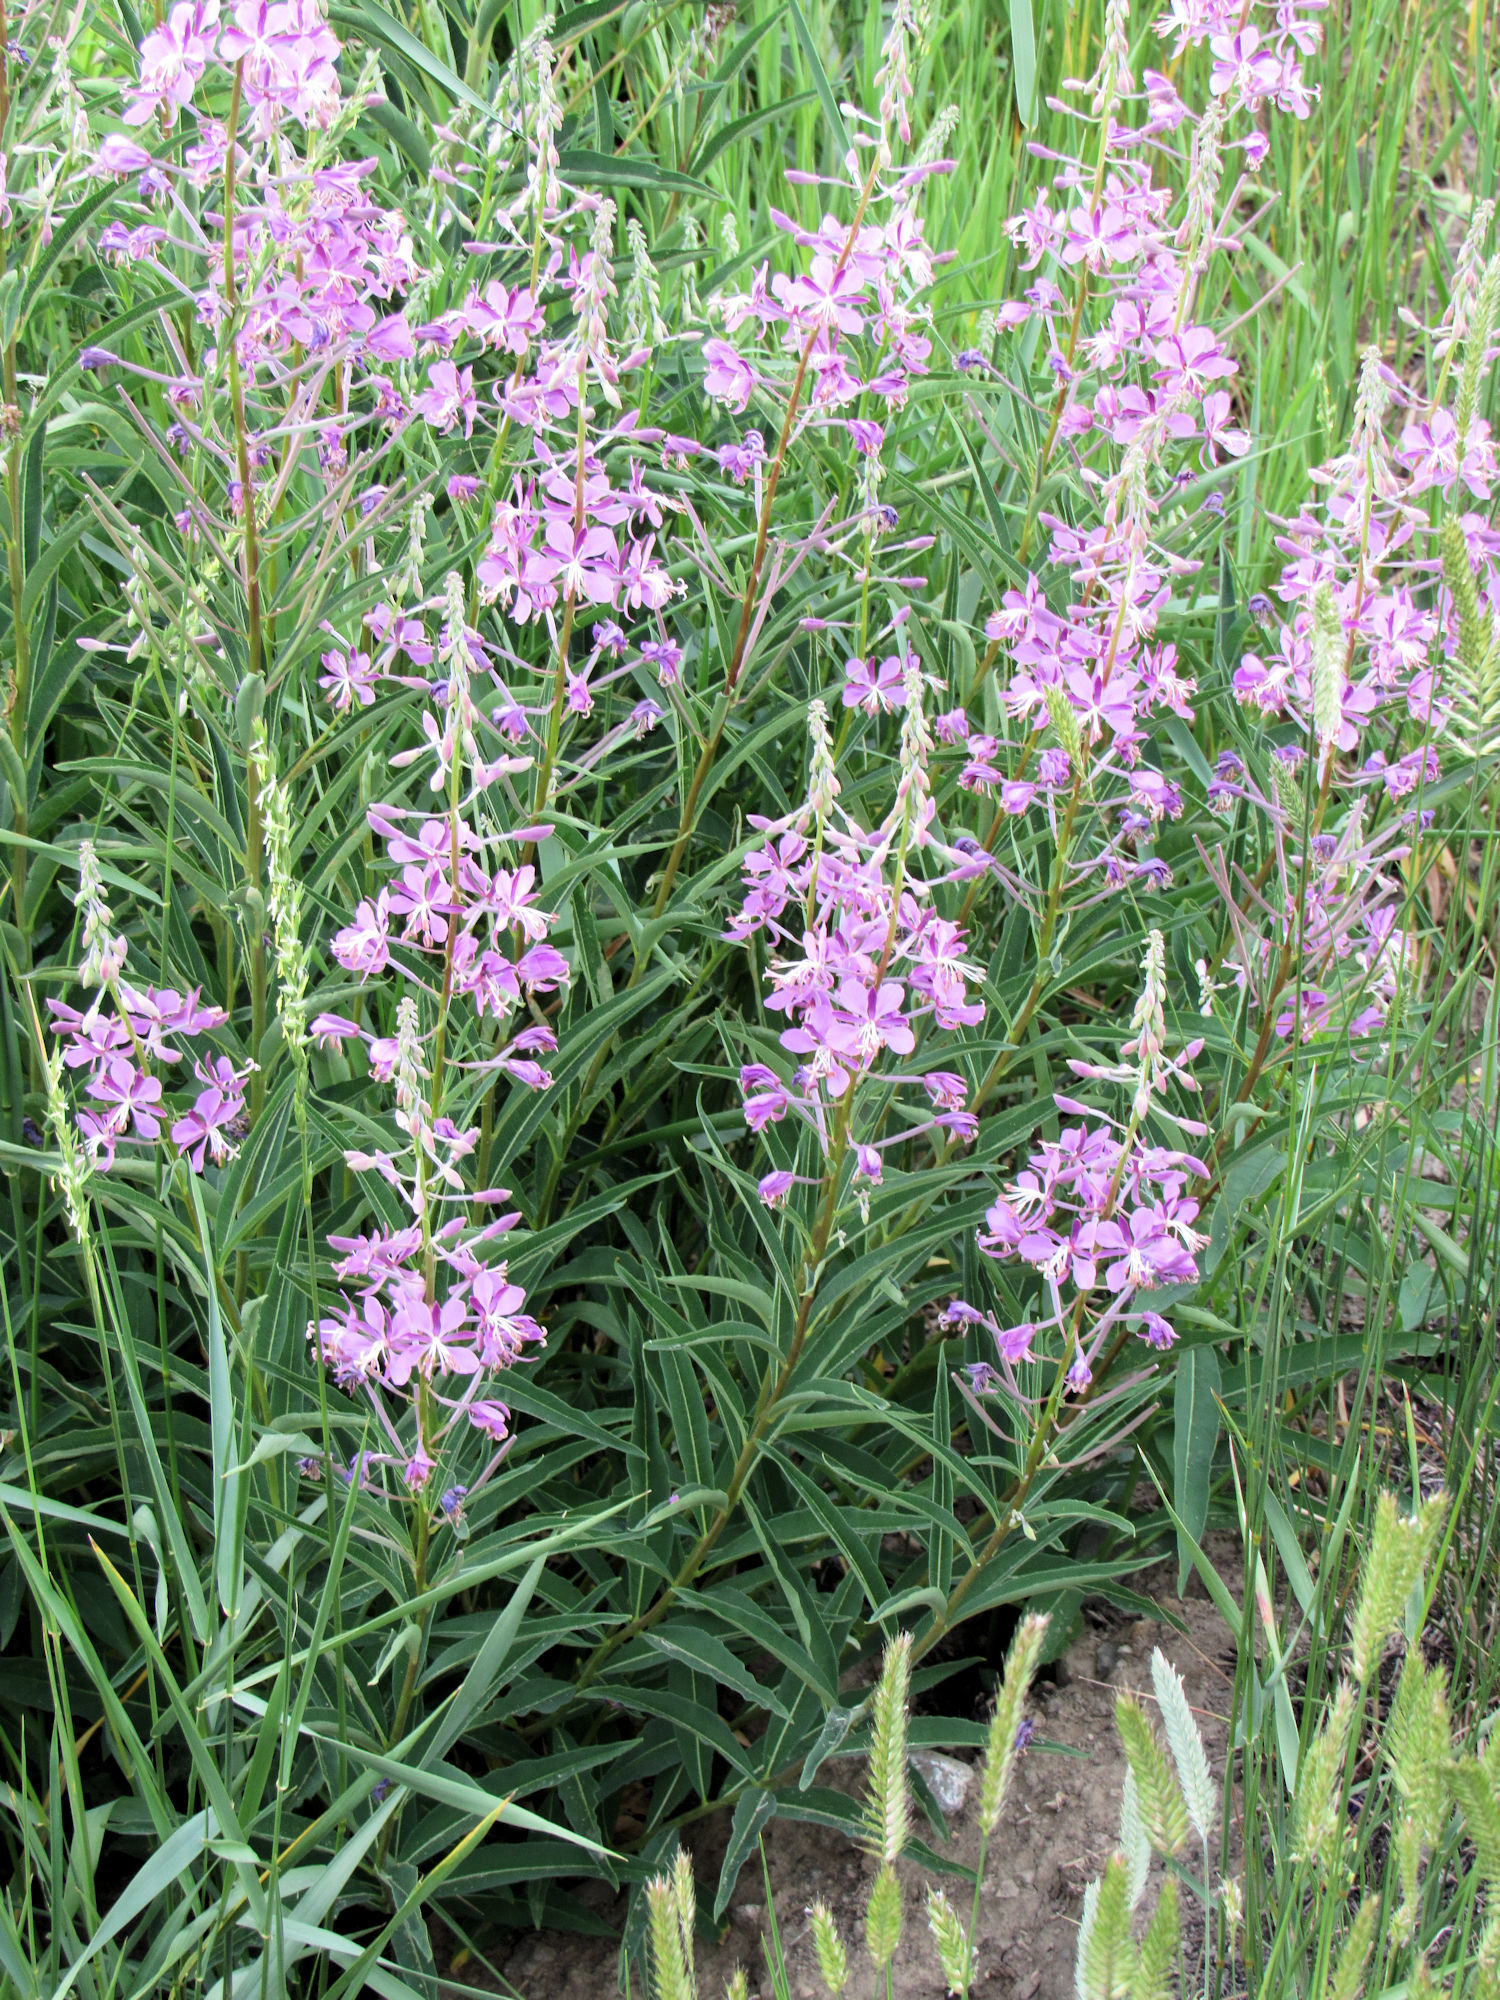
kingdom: Plantae
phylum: Tracheophyta
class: Magnoliopsida
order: Myrtales
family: Onagraceae
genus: Chamaenerion
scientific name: Chamaenerion angustifolium
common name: Fireweed
